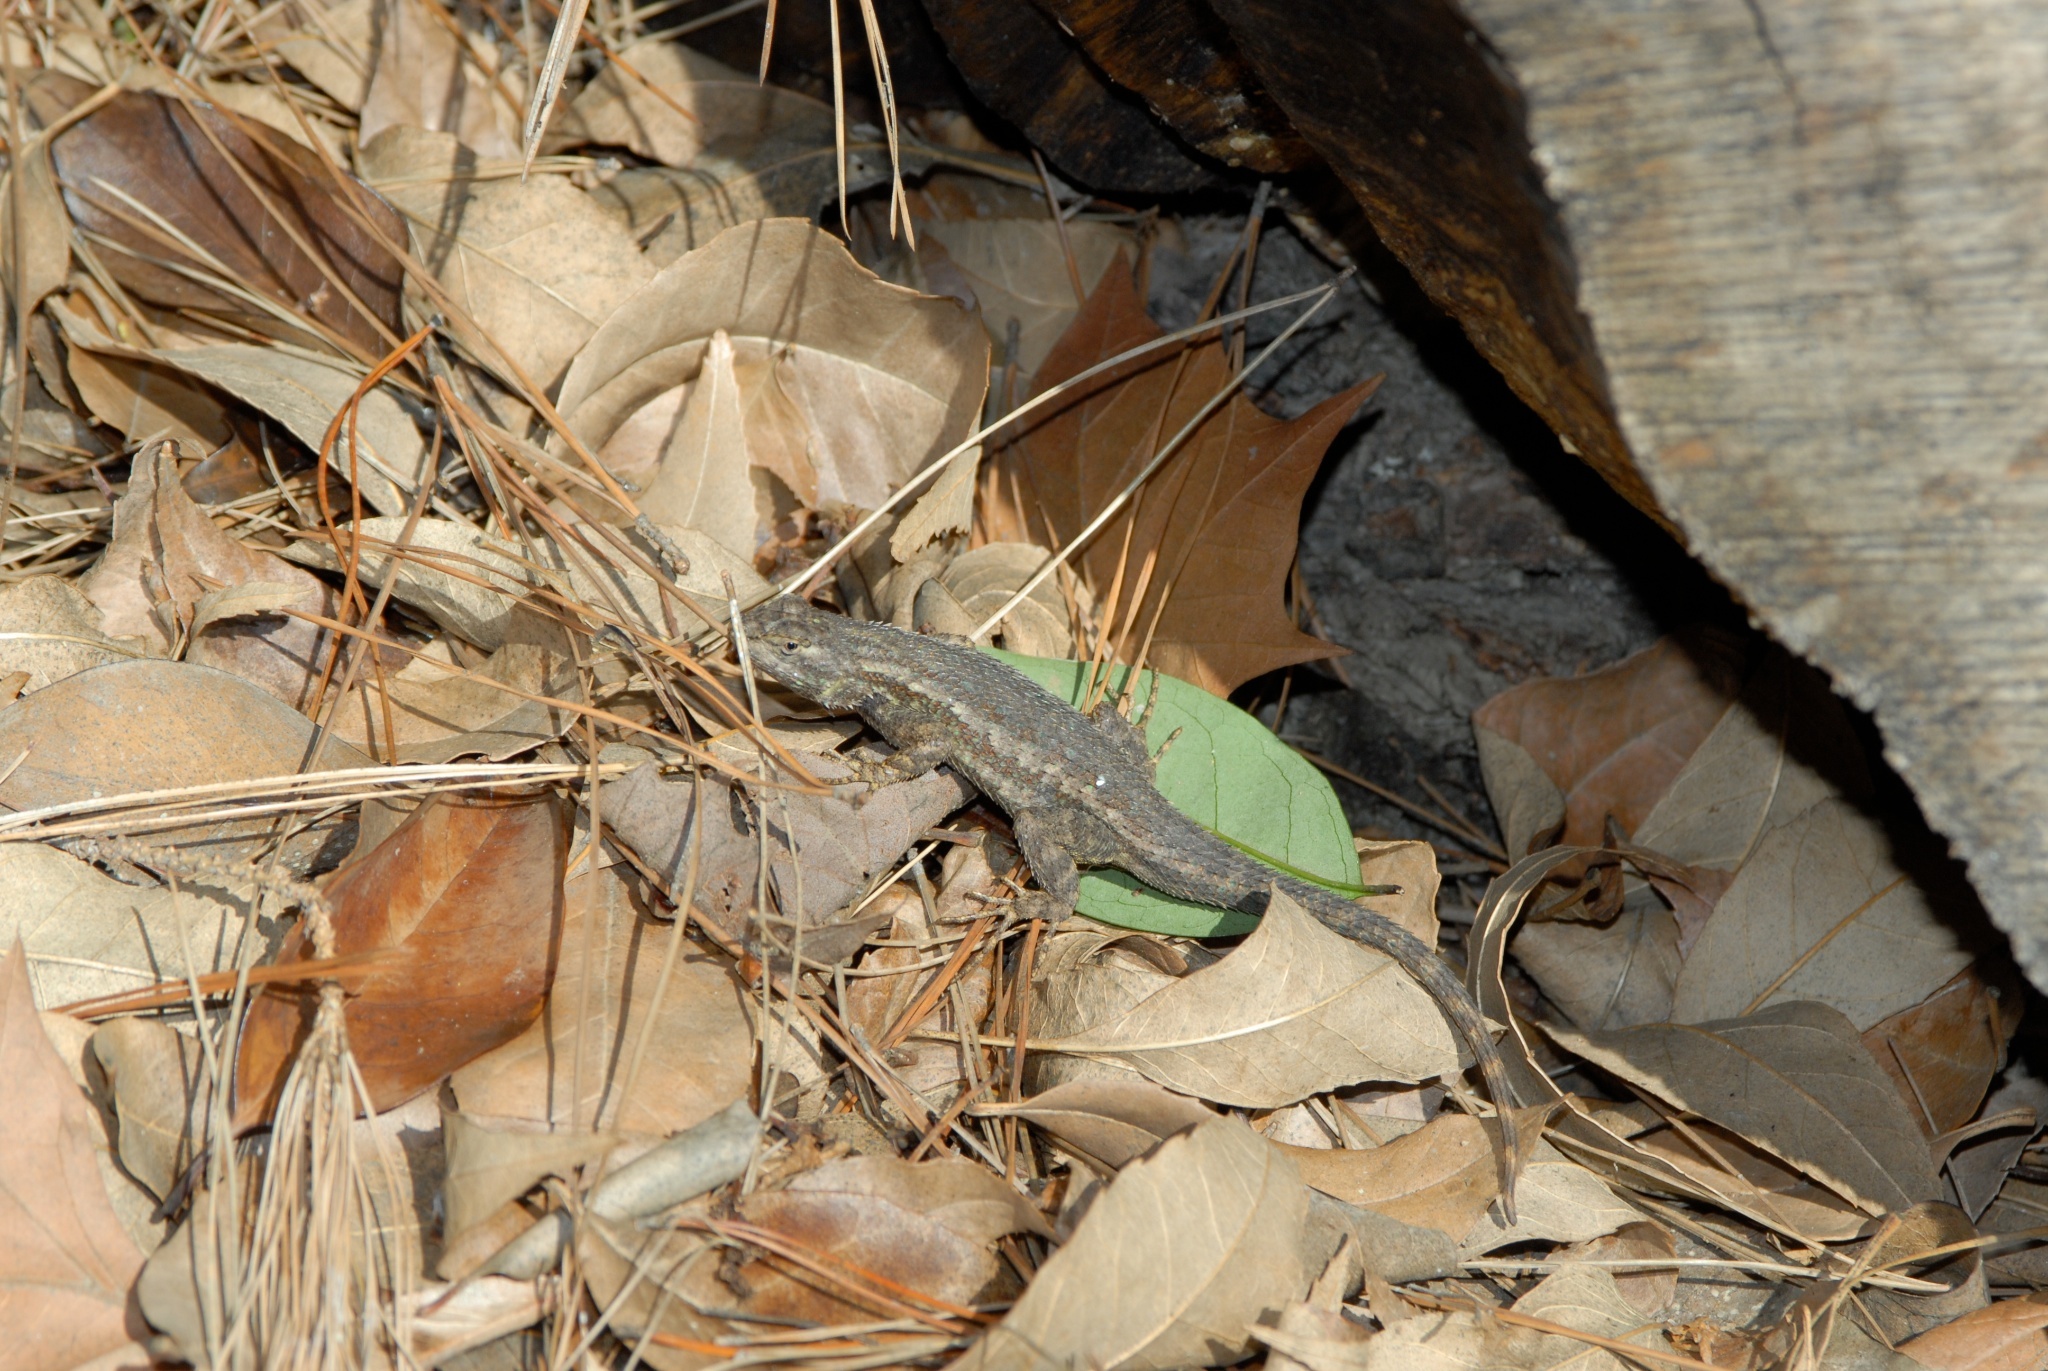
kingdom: Animalia
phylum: Chordata
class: Squamata
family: Phrynosomatidae
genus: Sceloporus
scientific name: Sceloporus occidentalis
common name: Western fence lizard
